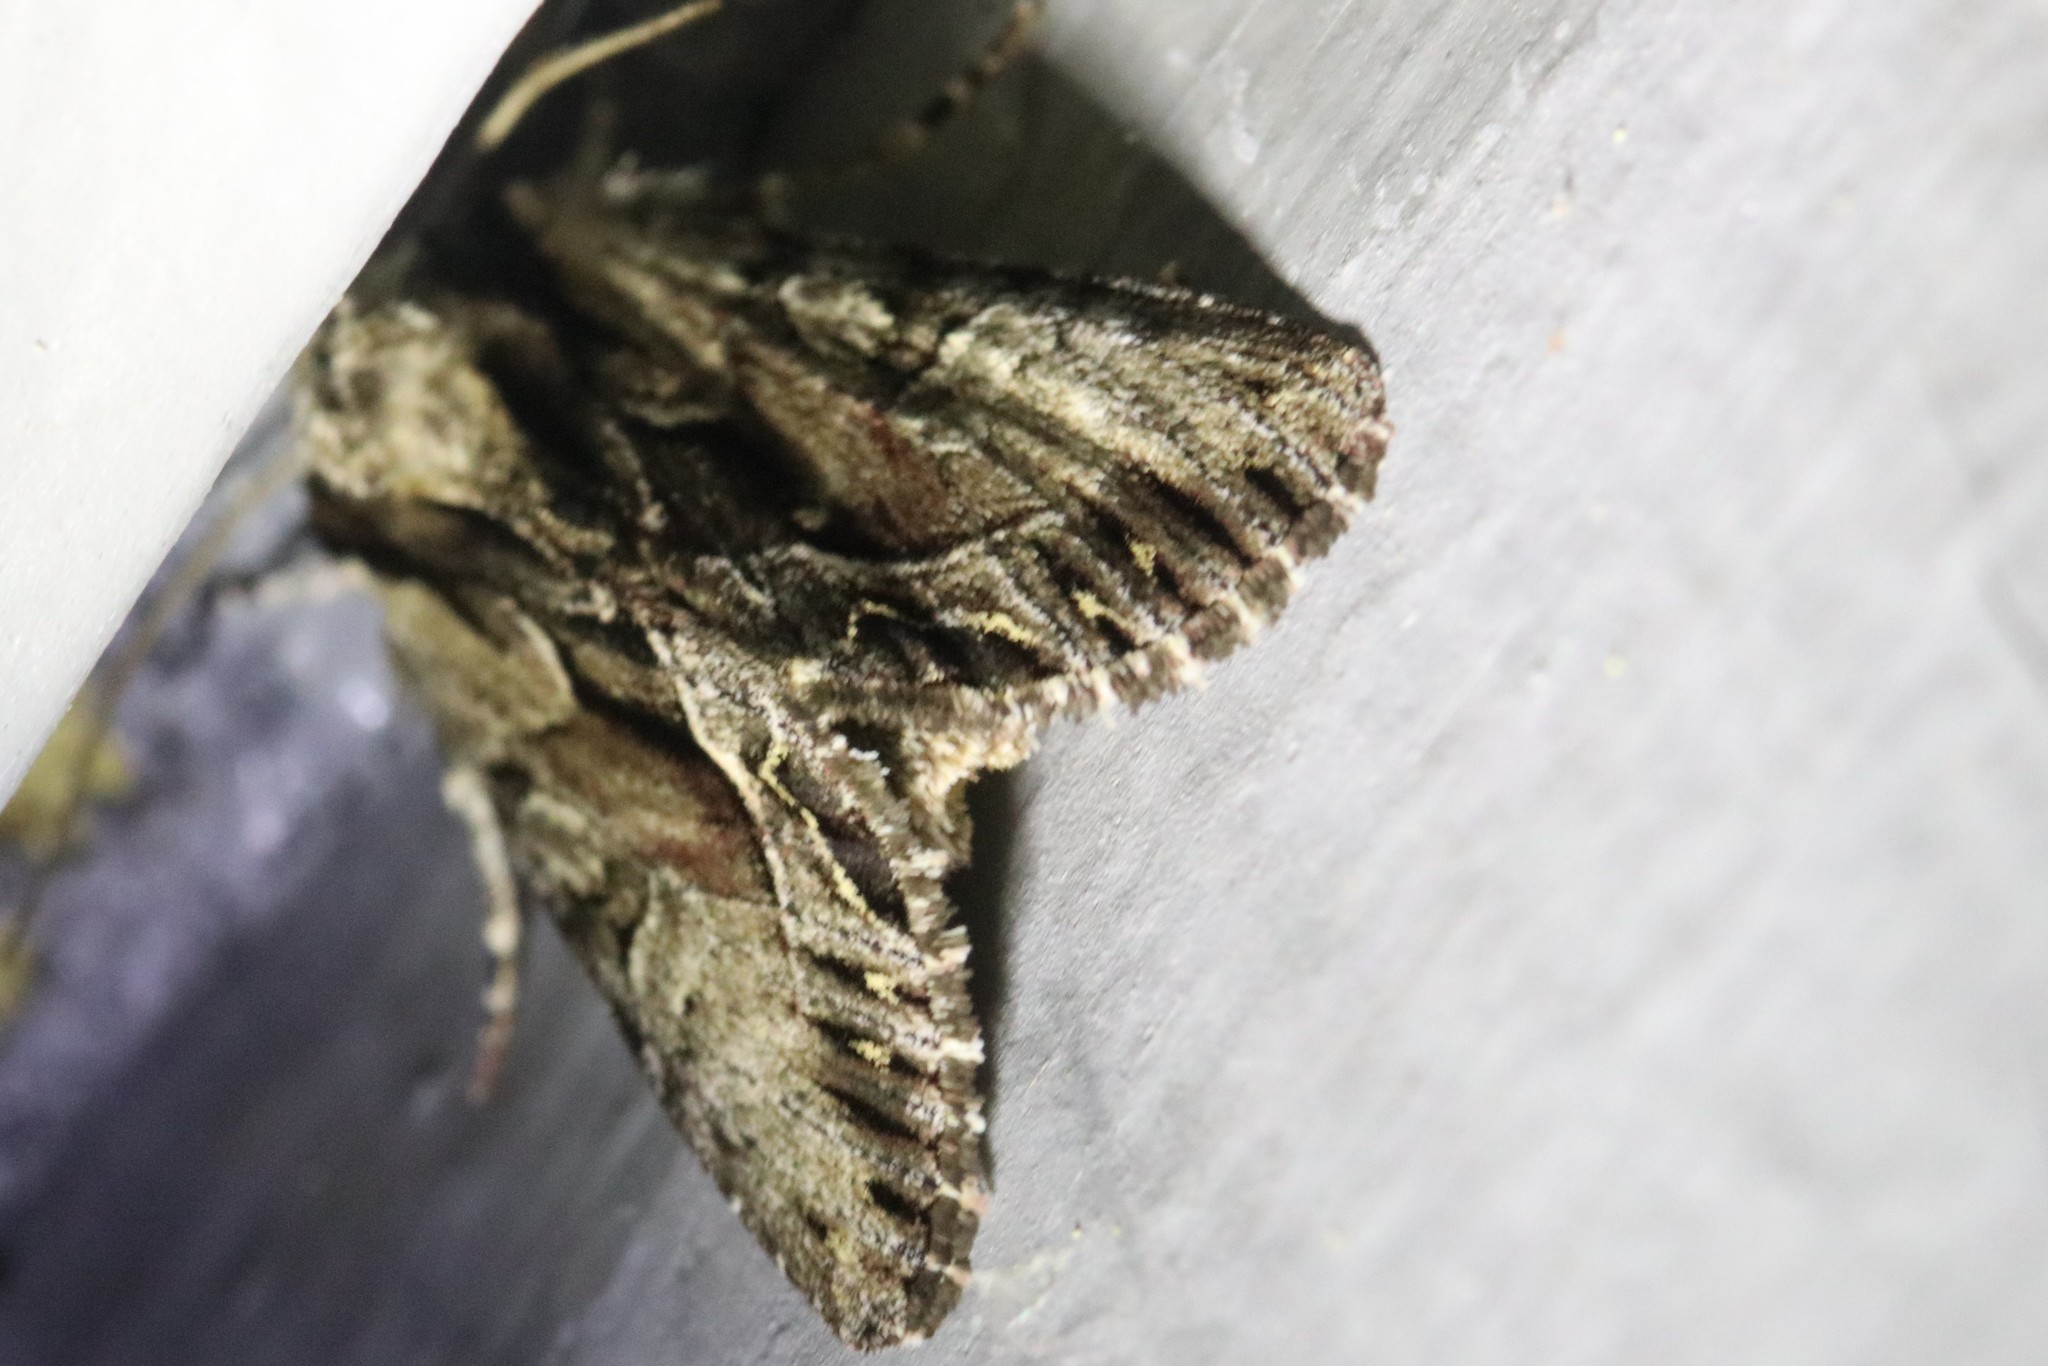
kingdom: Animalia
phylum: Arthropoda
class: Insecta
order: Lepidoptera
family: Noctuidae
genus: Hyppa
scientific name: Hyppa xylinoides
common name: Common hyppa moth
